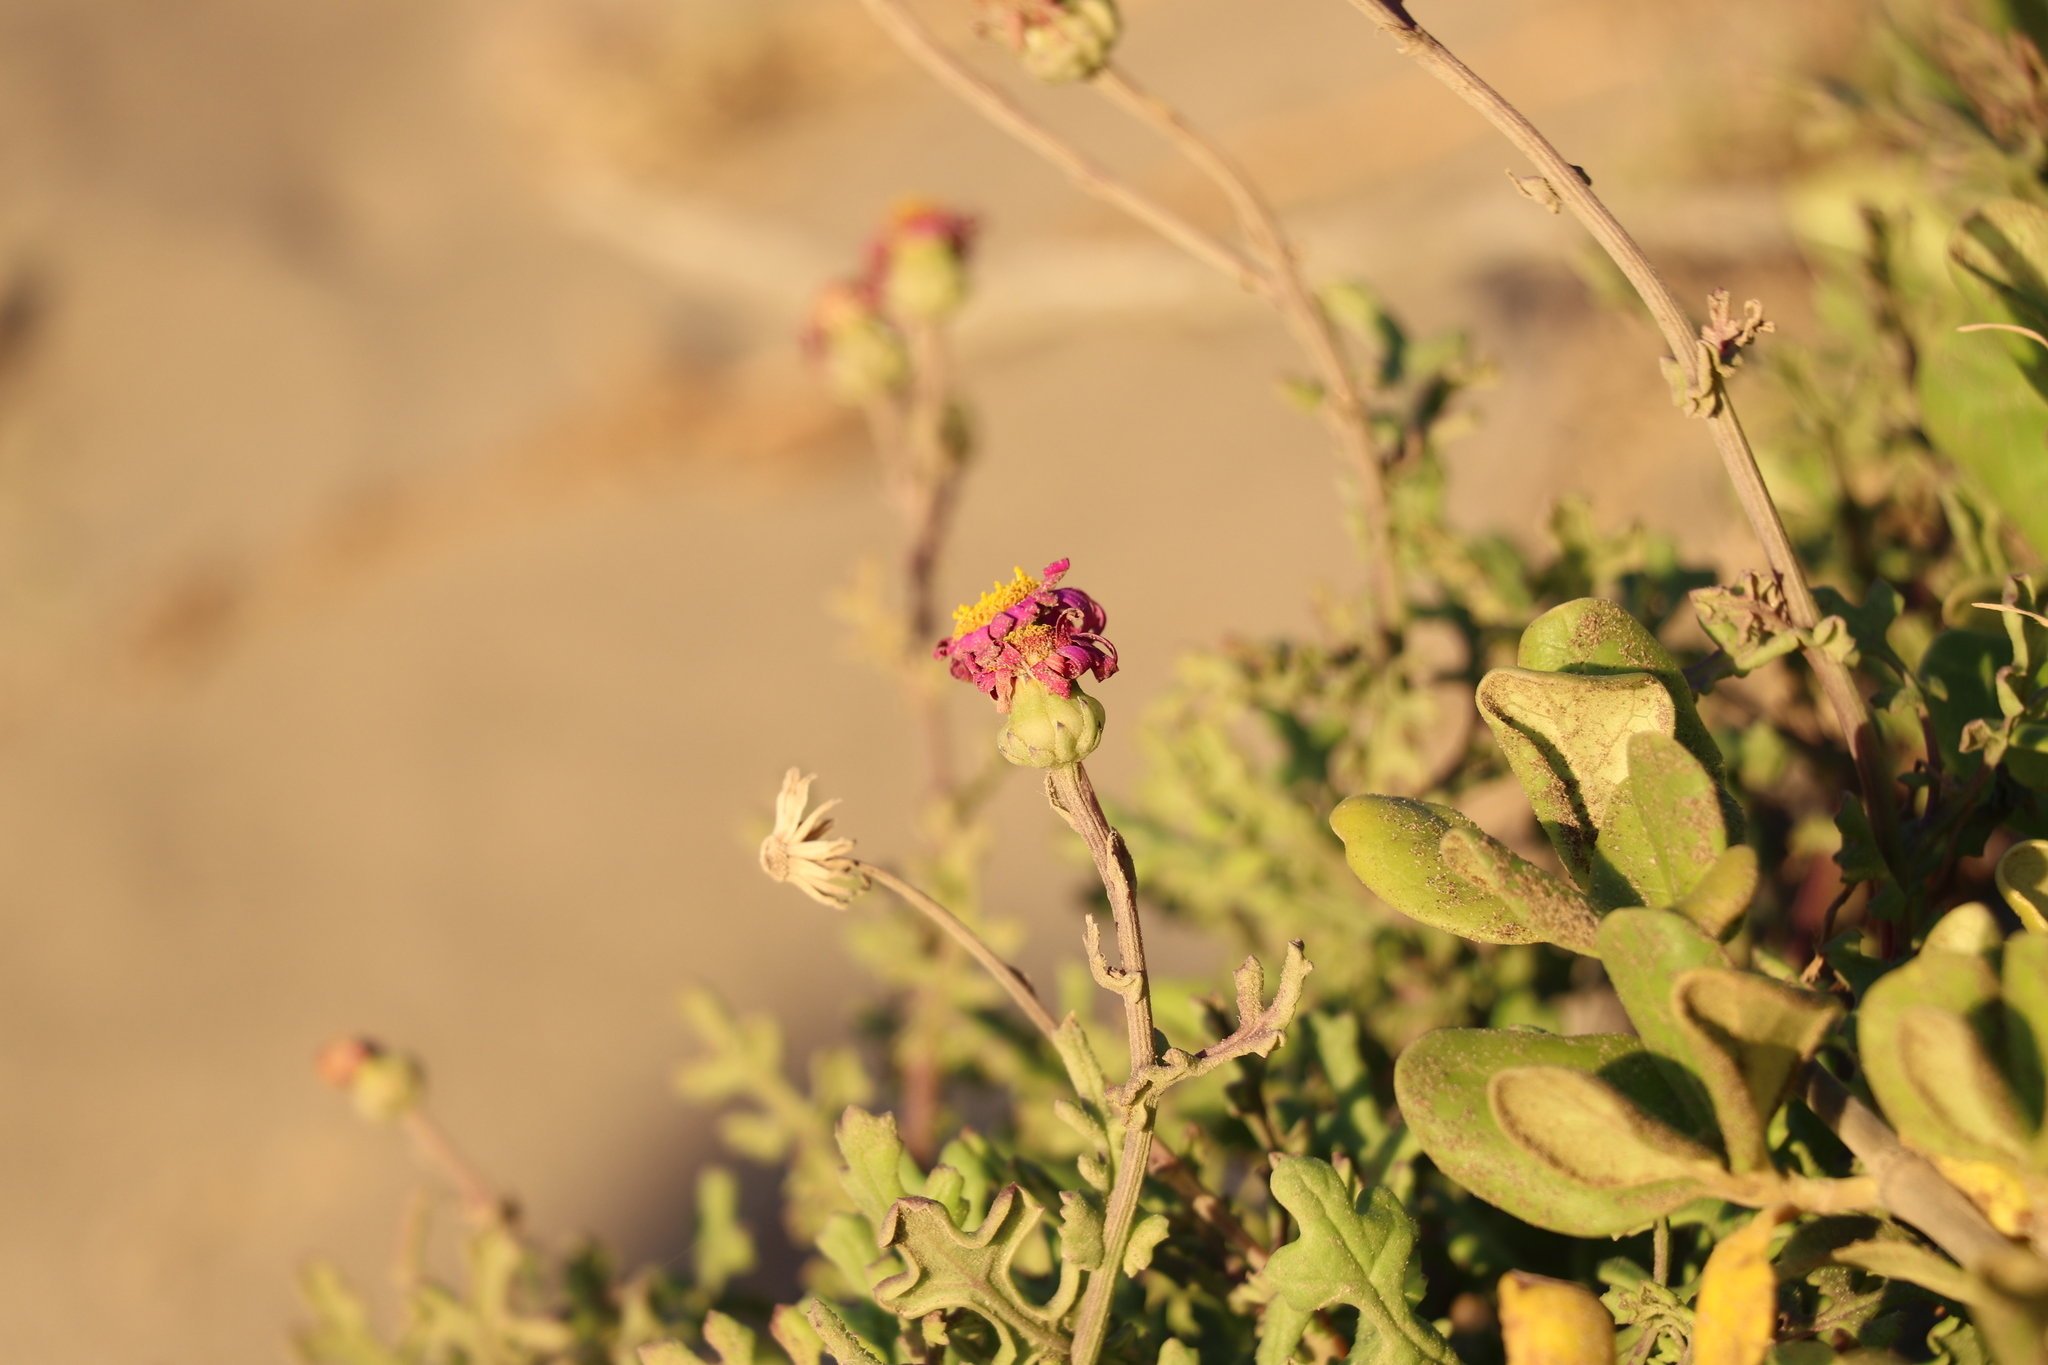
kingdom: Plantae
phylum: Tracheophyta
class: Magnoliopsida
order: Asterales
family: Asteraceae
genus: Senecio
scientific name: Senecio elegans
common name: Purple groundsel
